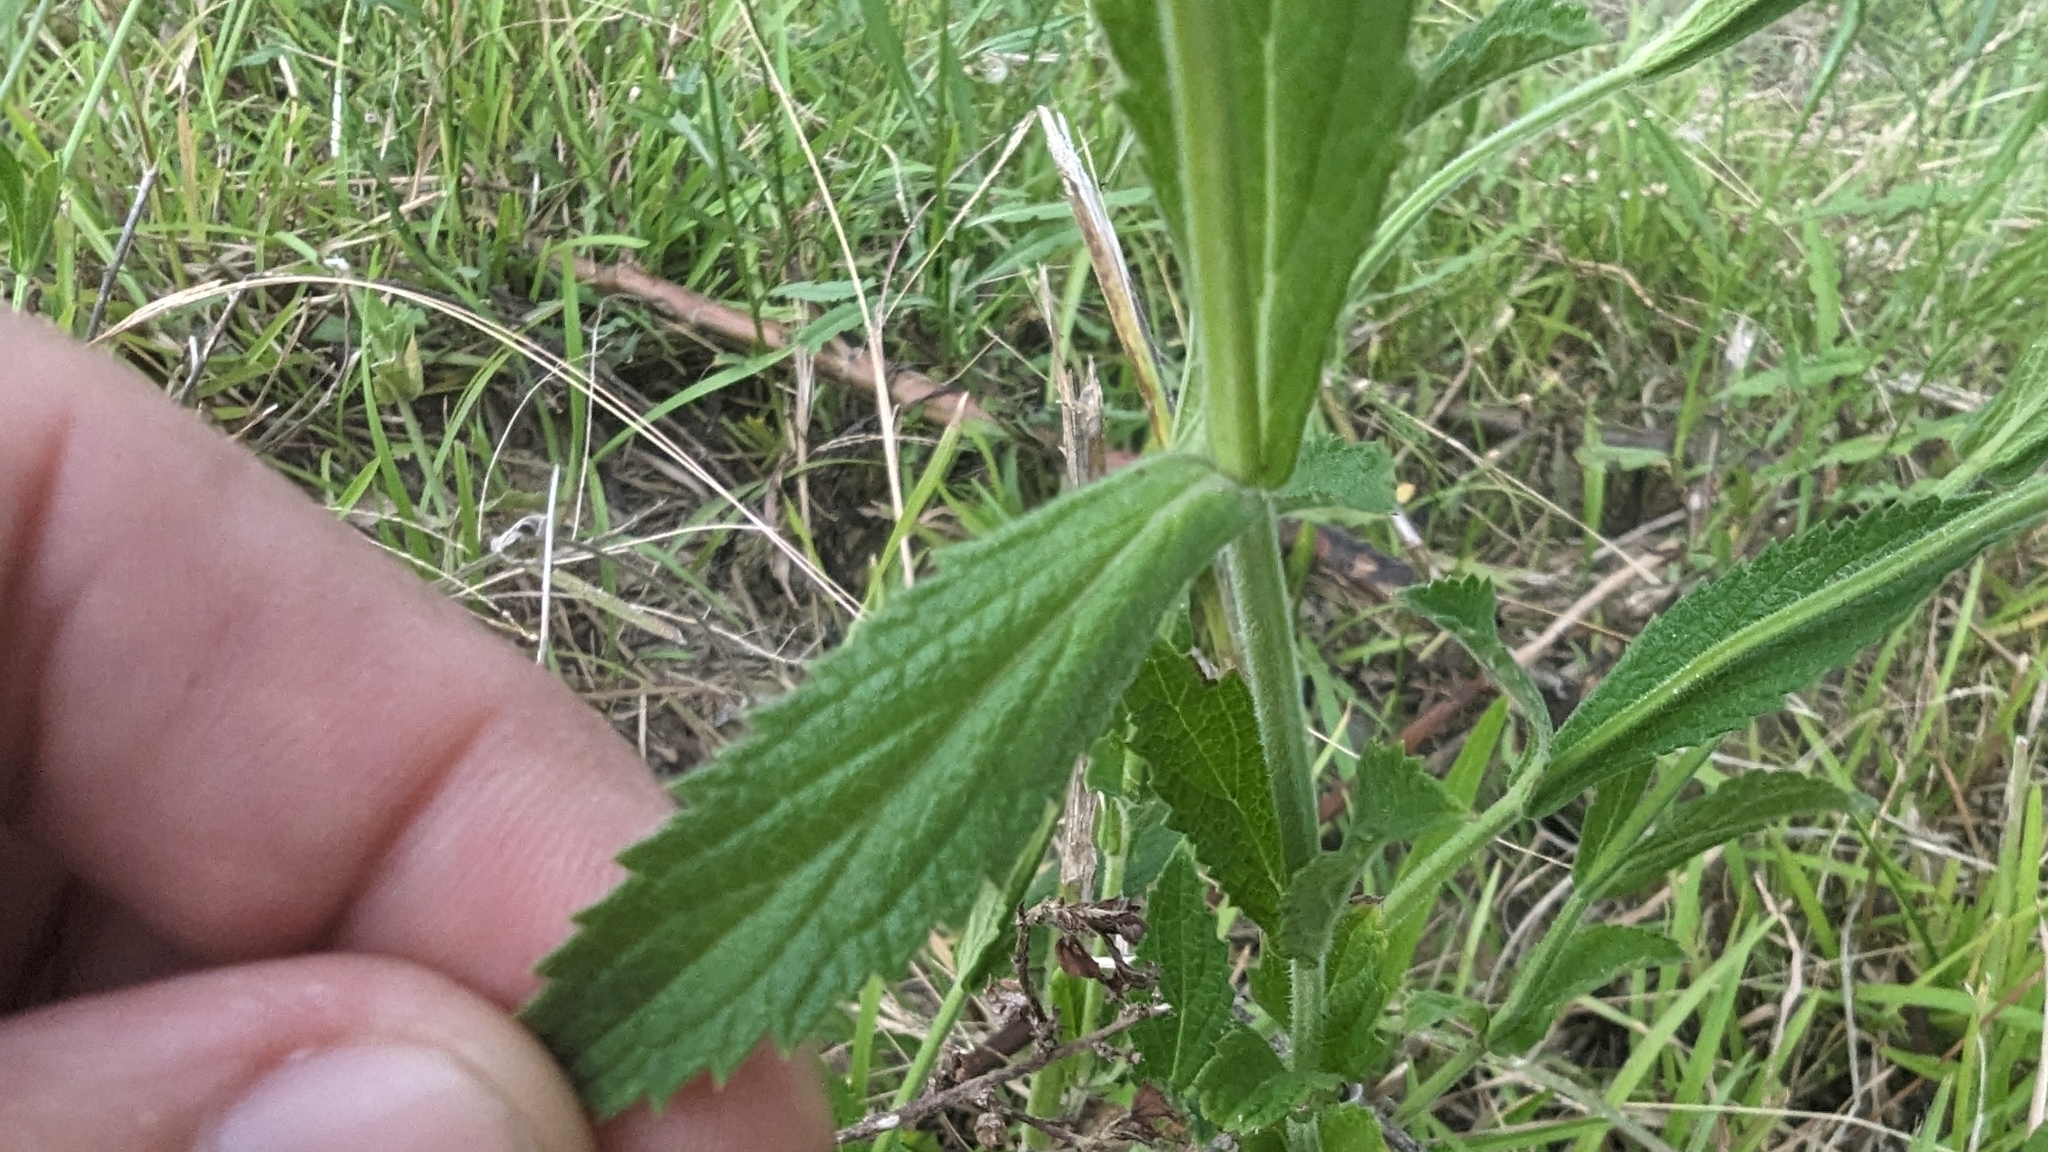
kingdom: Plantae
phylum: Tracheophyta
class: Magnoliopsida
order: Lamiales
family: Verbenaceae
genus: Verbena
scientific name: Verbena bonariensis
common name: Purpletop vervain
